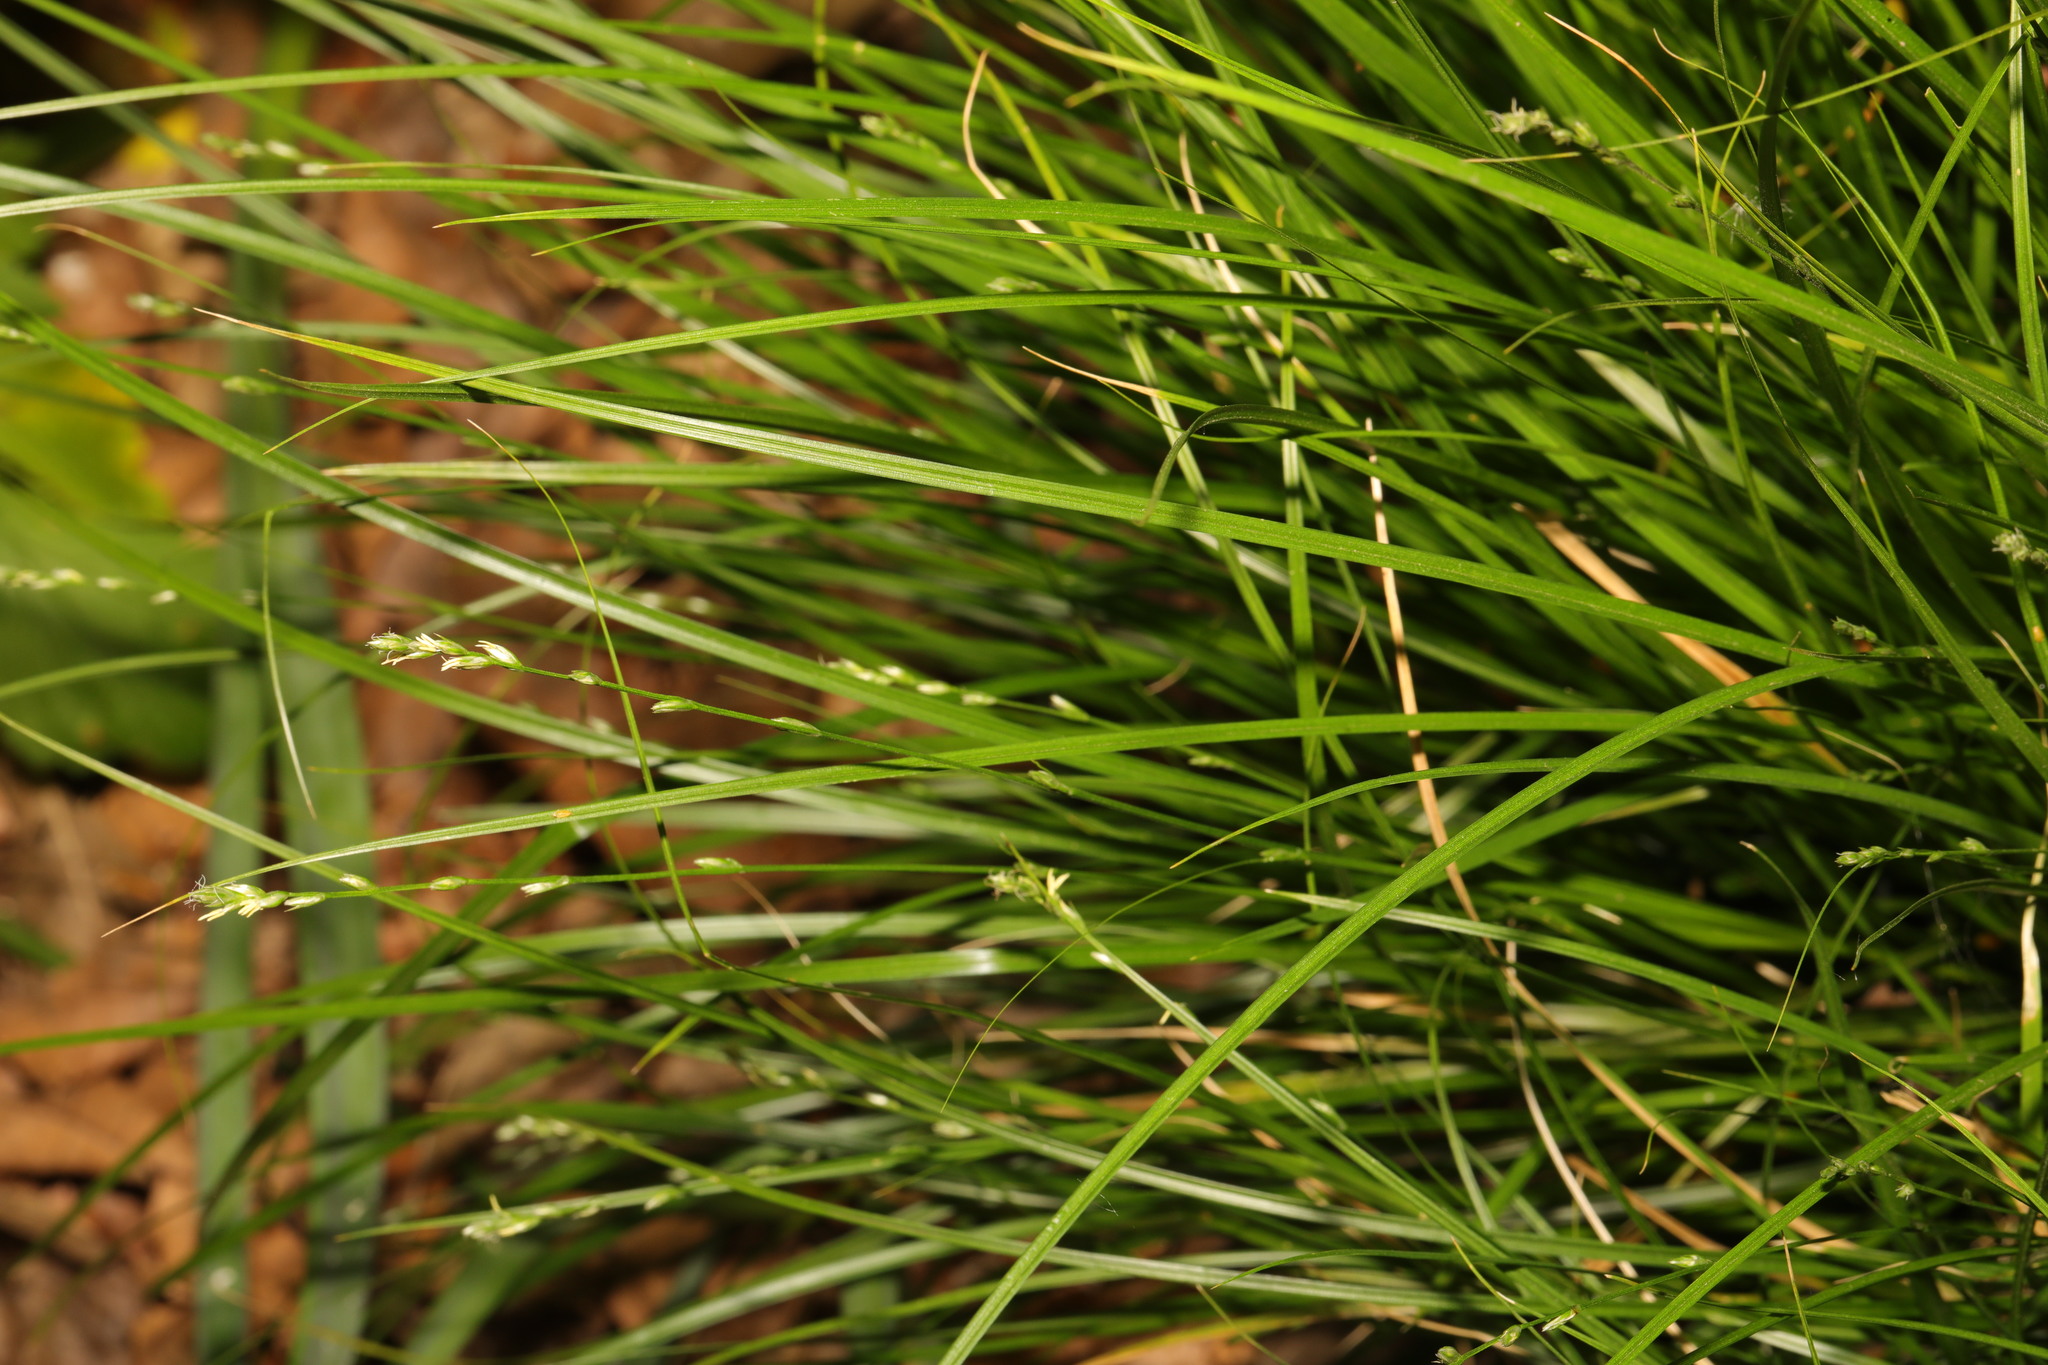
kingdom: Plantae
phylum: Tracheophyta
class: Liliopsida
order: Poales
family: Cyperaceae
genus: Carex
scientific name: Carex remota
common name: Remote sedge
